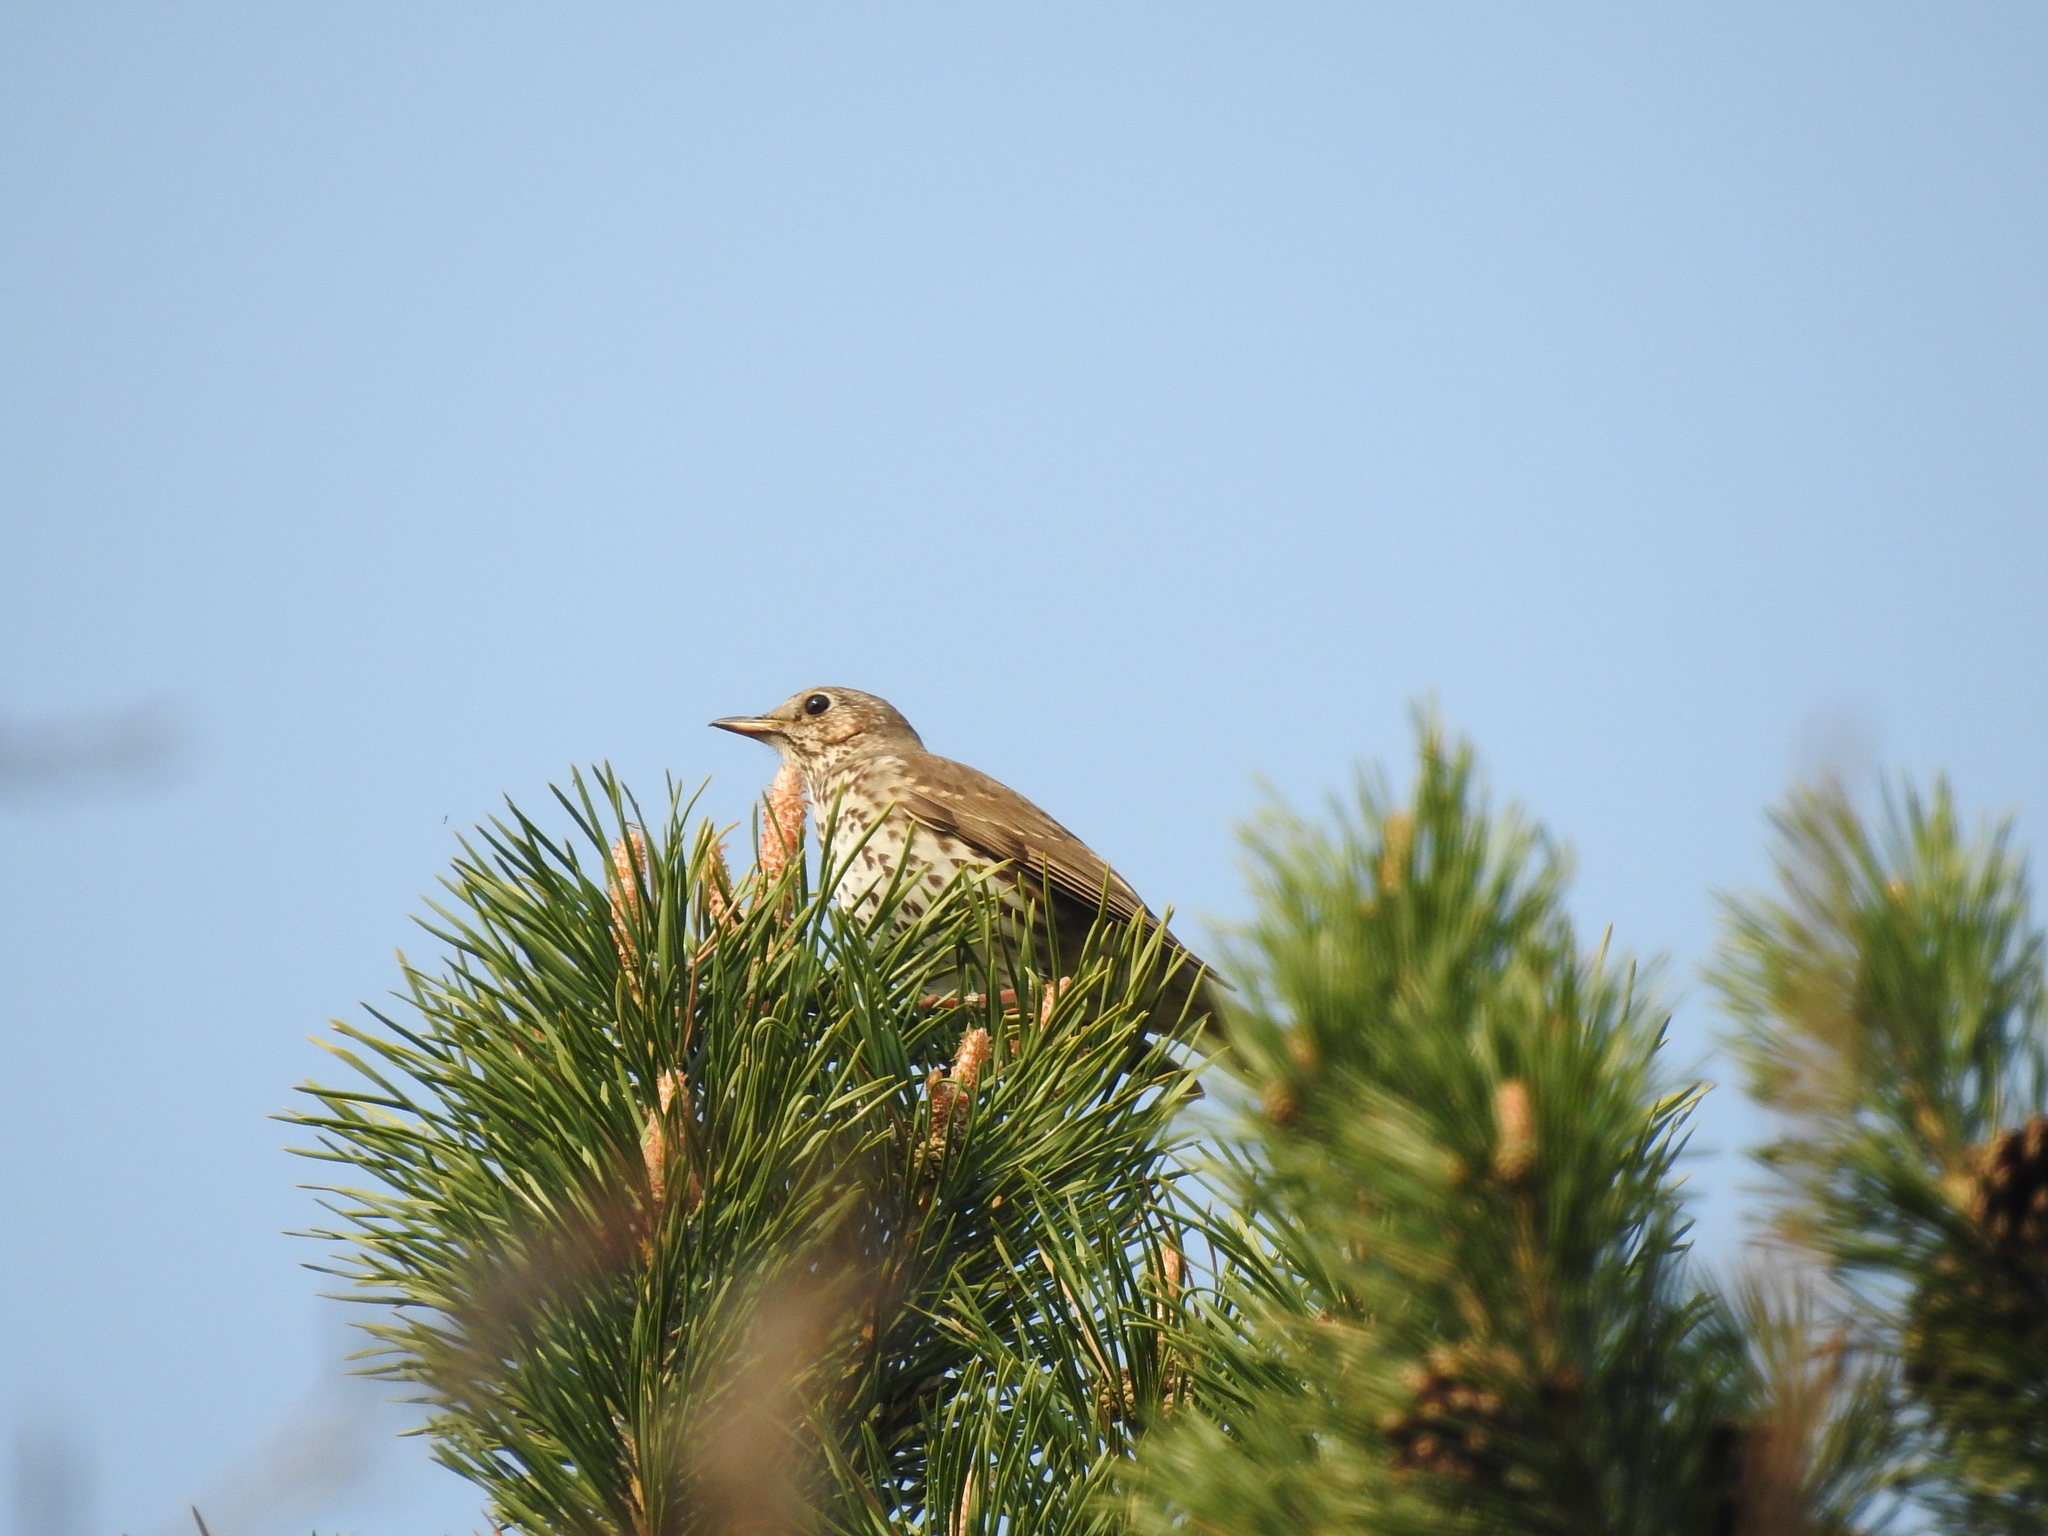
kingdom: Animalia
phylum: Chordata
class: Aves
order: Passeriformes
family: Turdidae
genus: Turdus
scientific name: Turdus philomelos
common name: Song thrush
